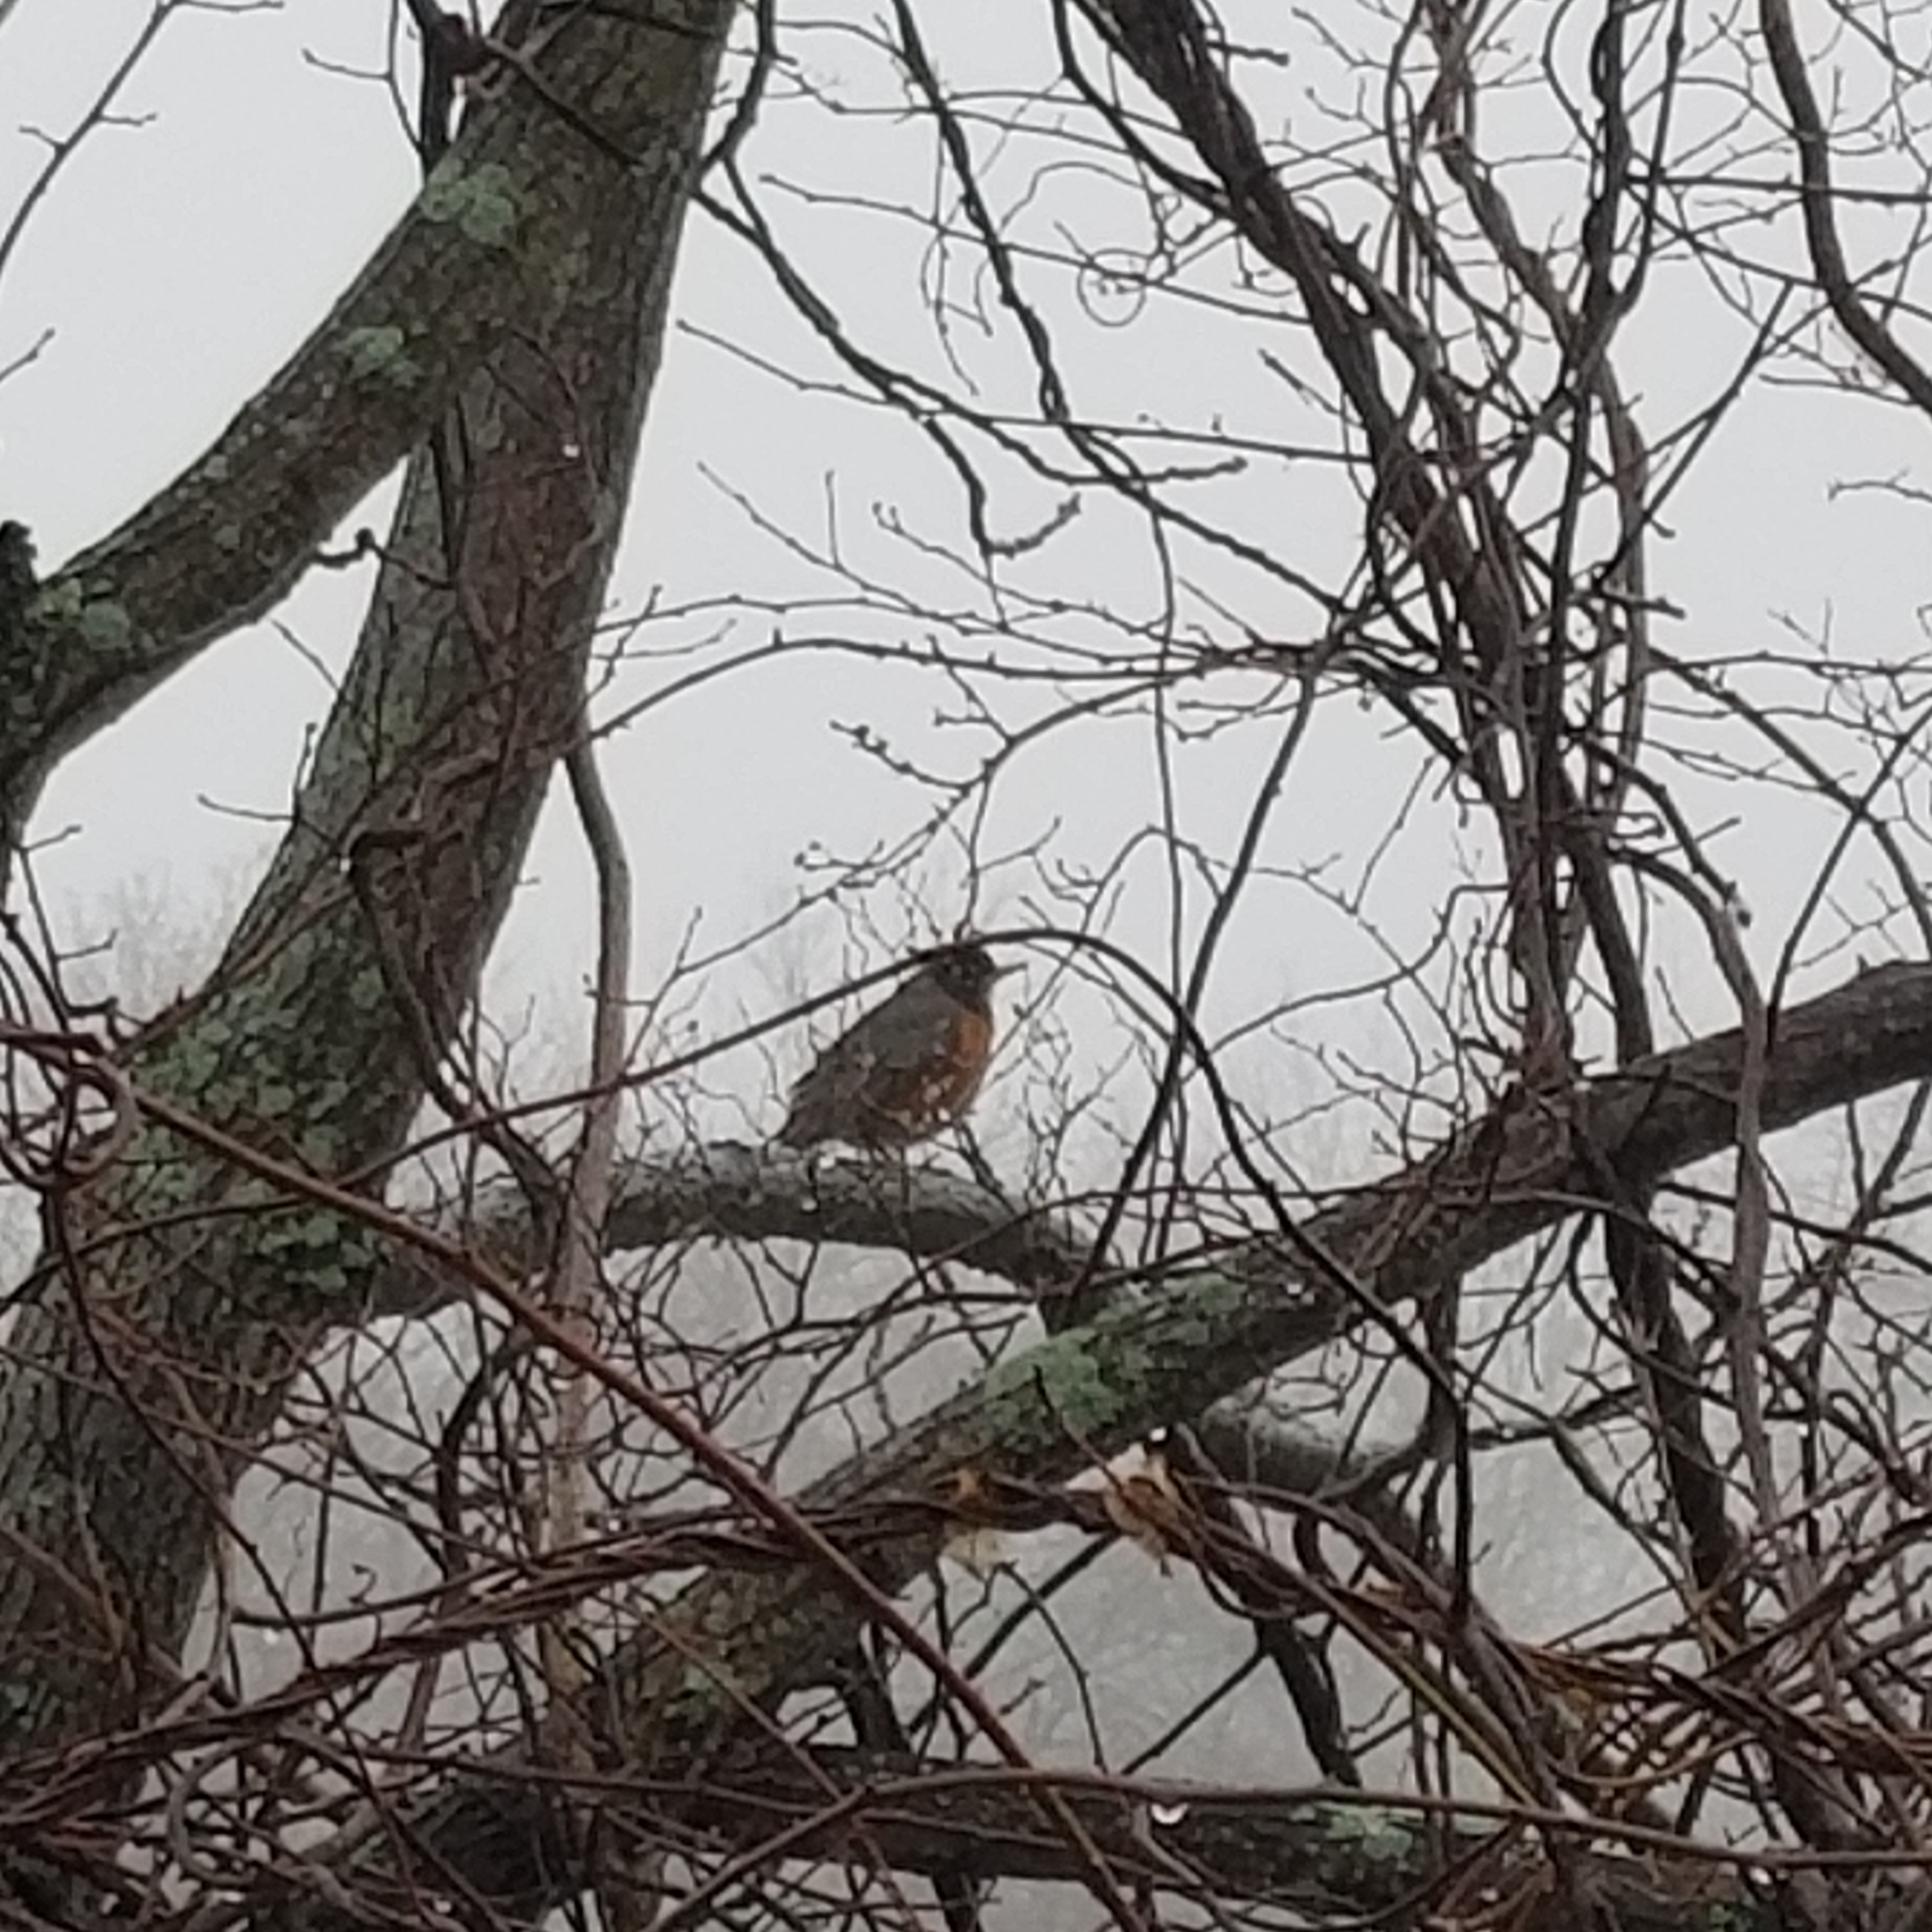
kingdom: Animalia
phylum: Chordata
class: Aves
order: Passeriformes
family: Turdidae
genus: Turdus
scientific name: Turdus migratorius
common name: American robin
